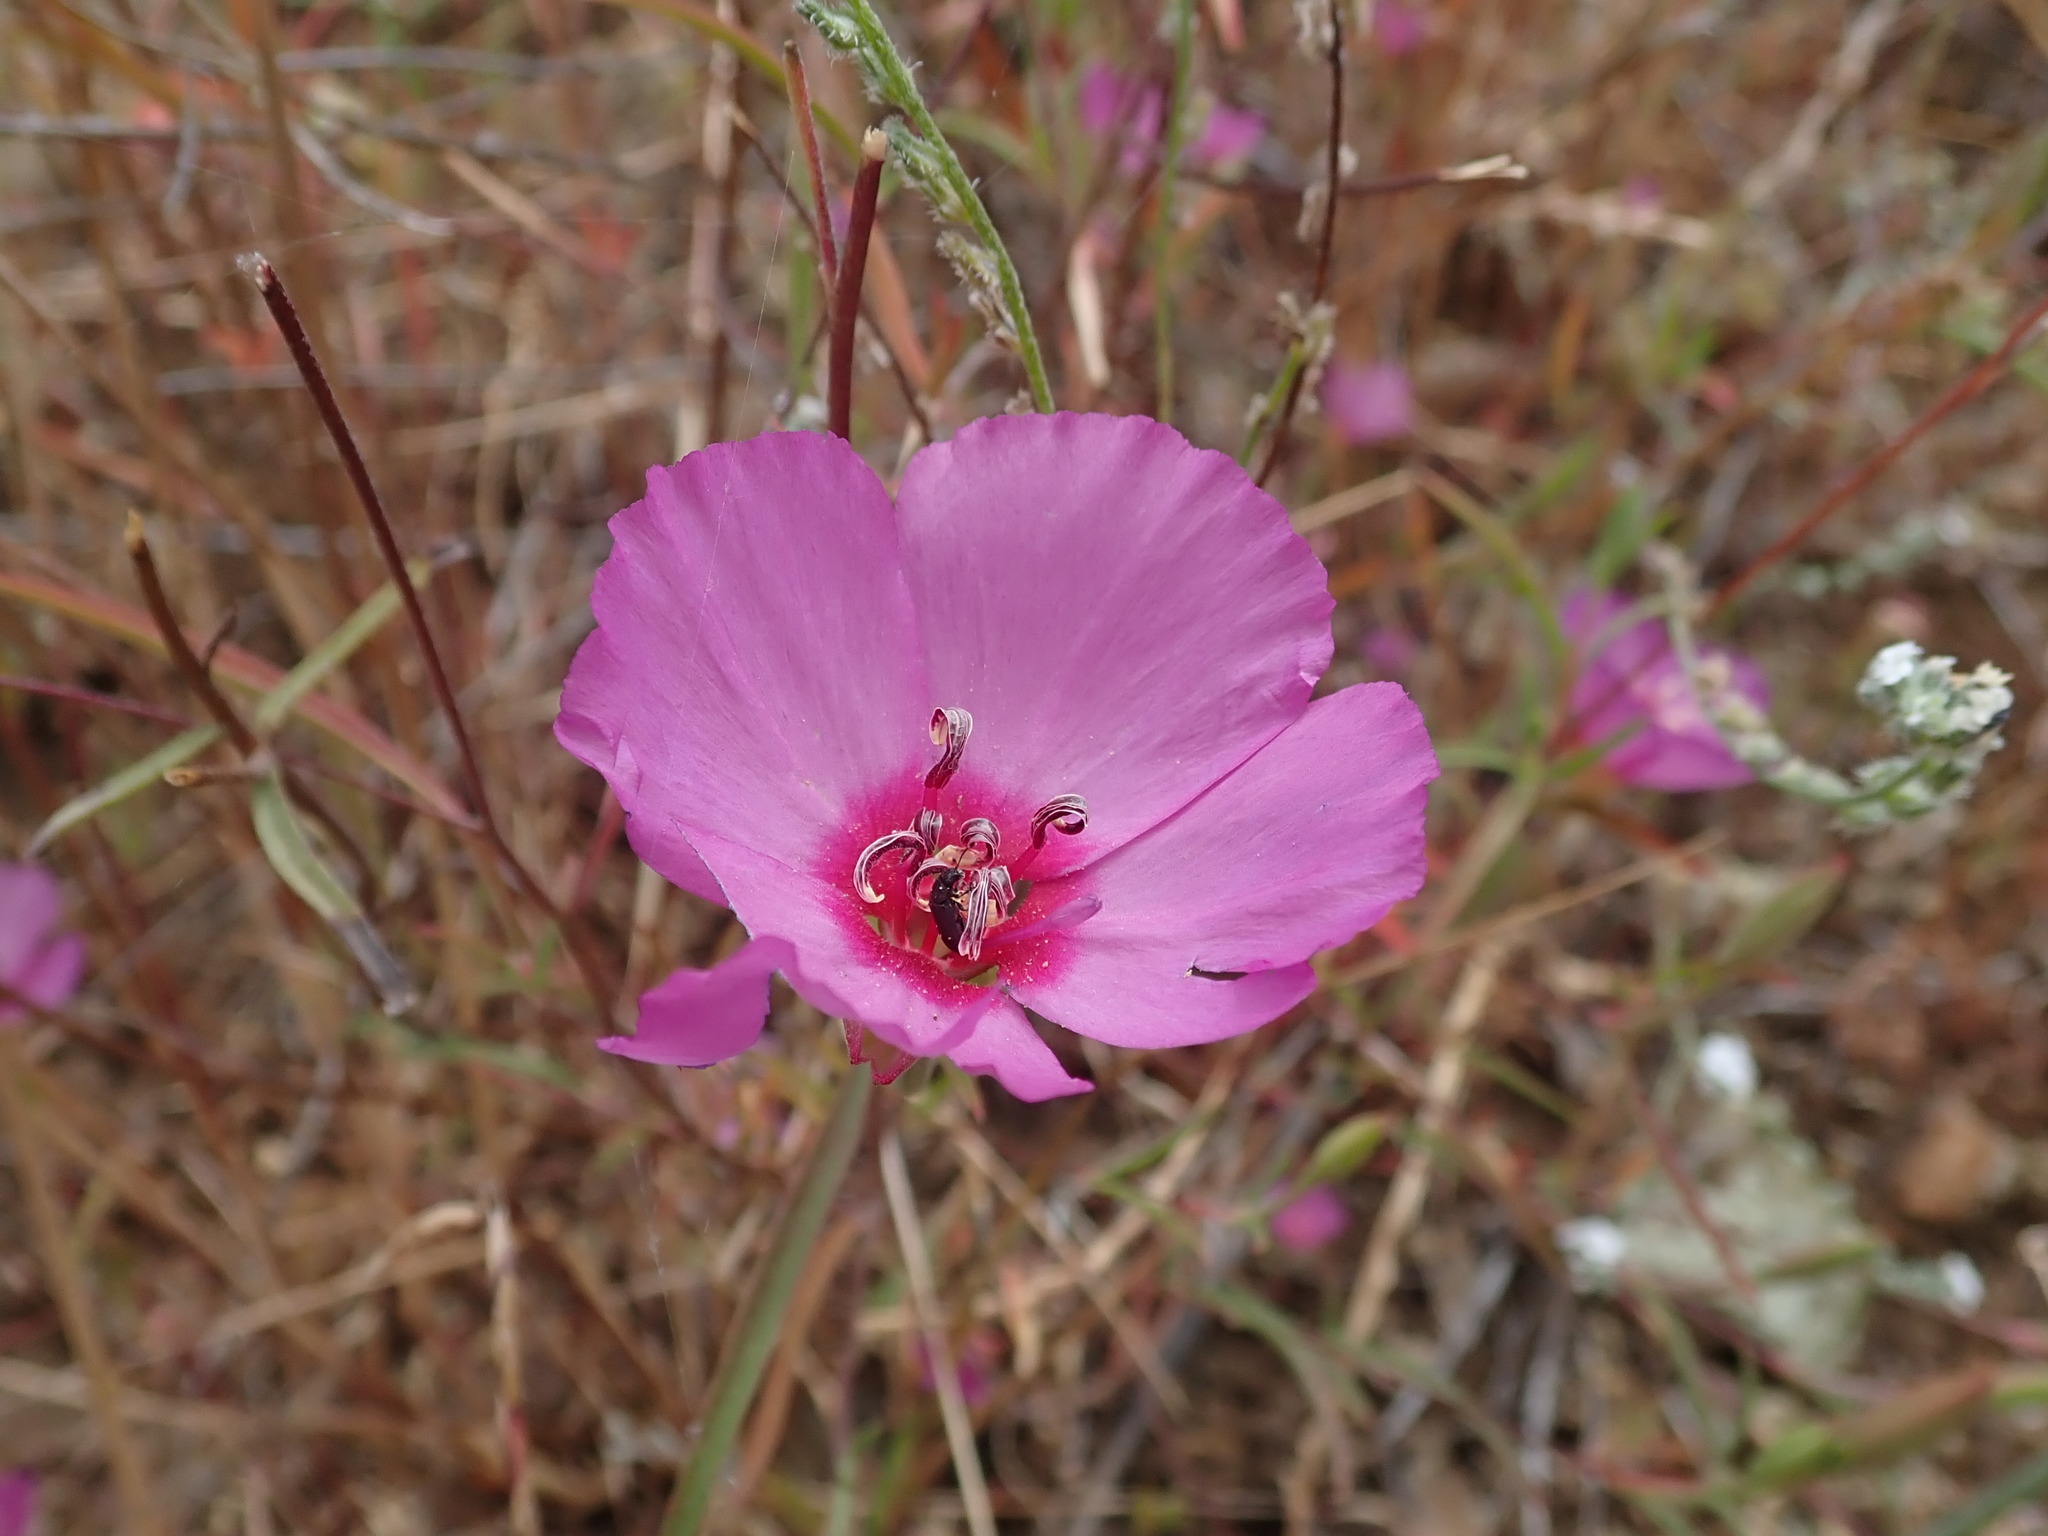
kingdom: Plantae
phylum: Tracheophyta
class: Magnoliopsida
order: Myrtales
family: Onagraceae
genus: Clarkia
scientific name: Clarkia rubicunda
